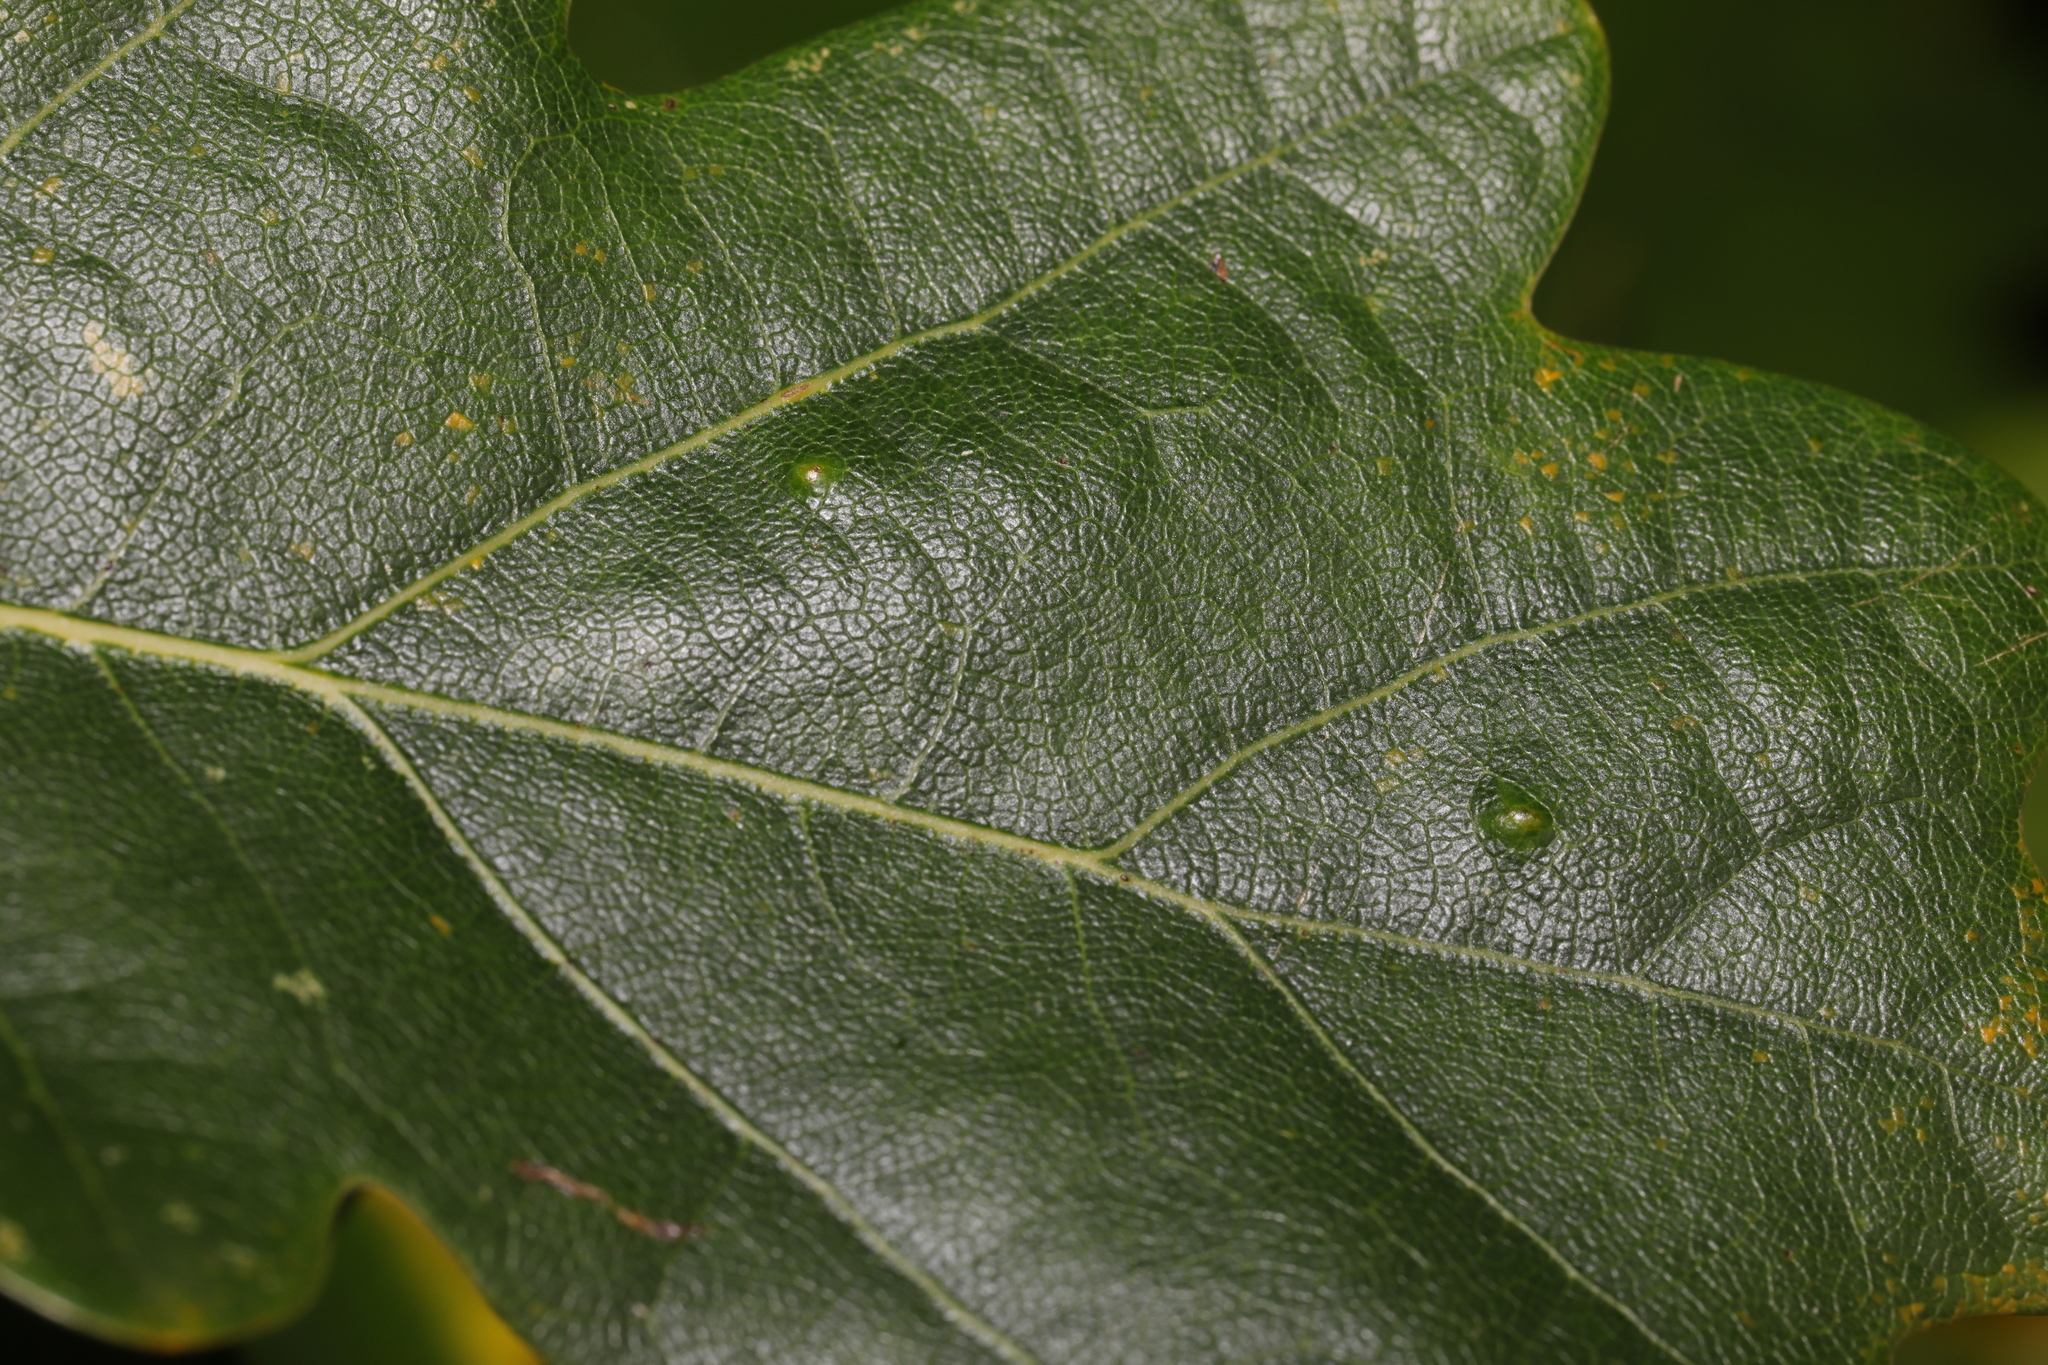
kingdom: Animalia
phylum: Arthropoda
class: Insecta
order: Hemiptera
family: Triozidae
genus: Trioza
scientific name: Trioza remota
